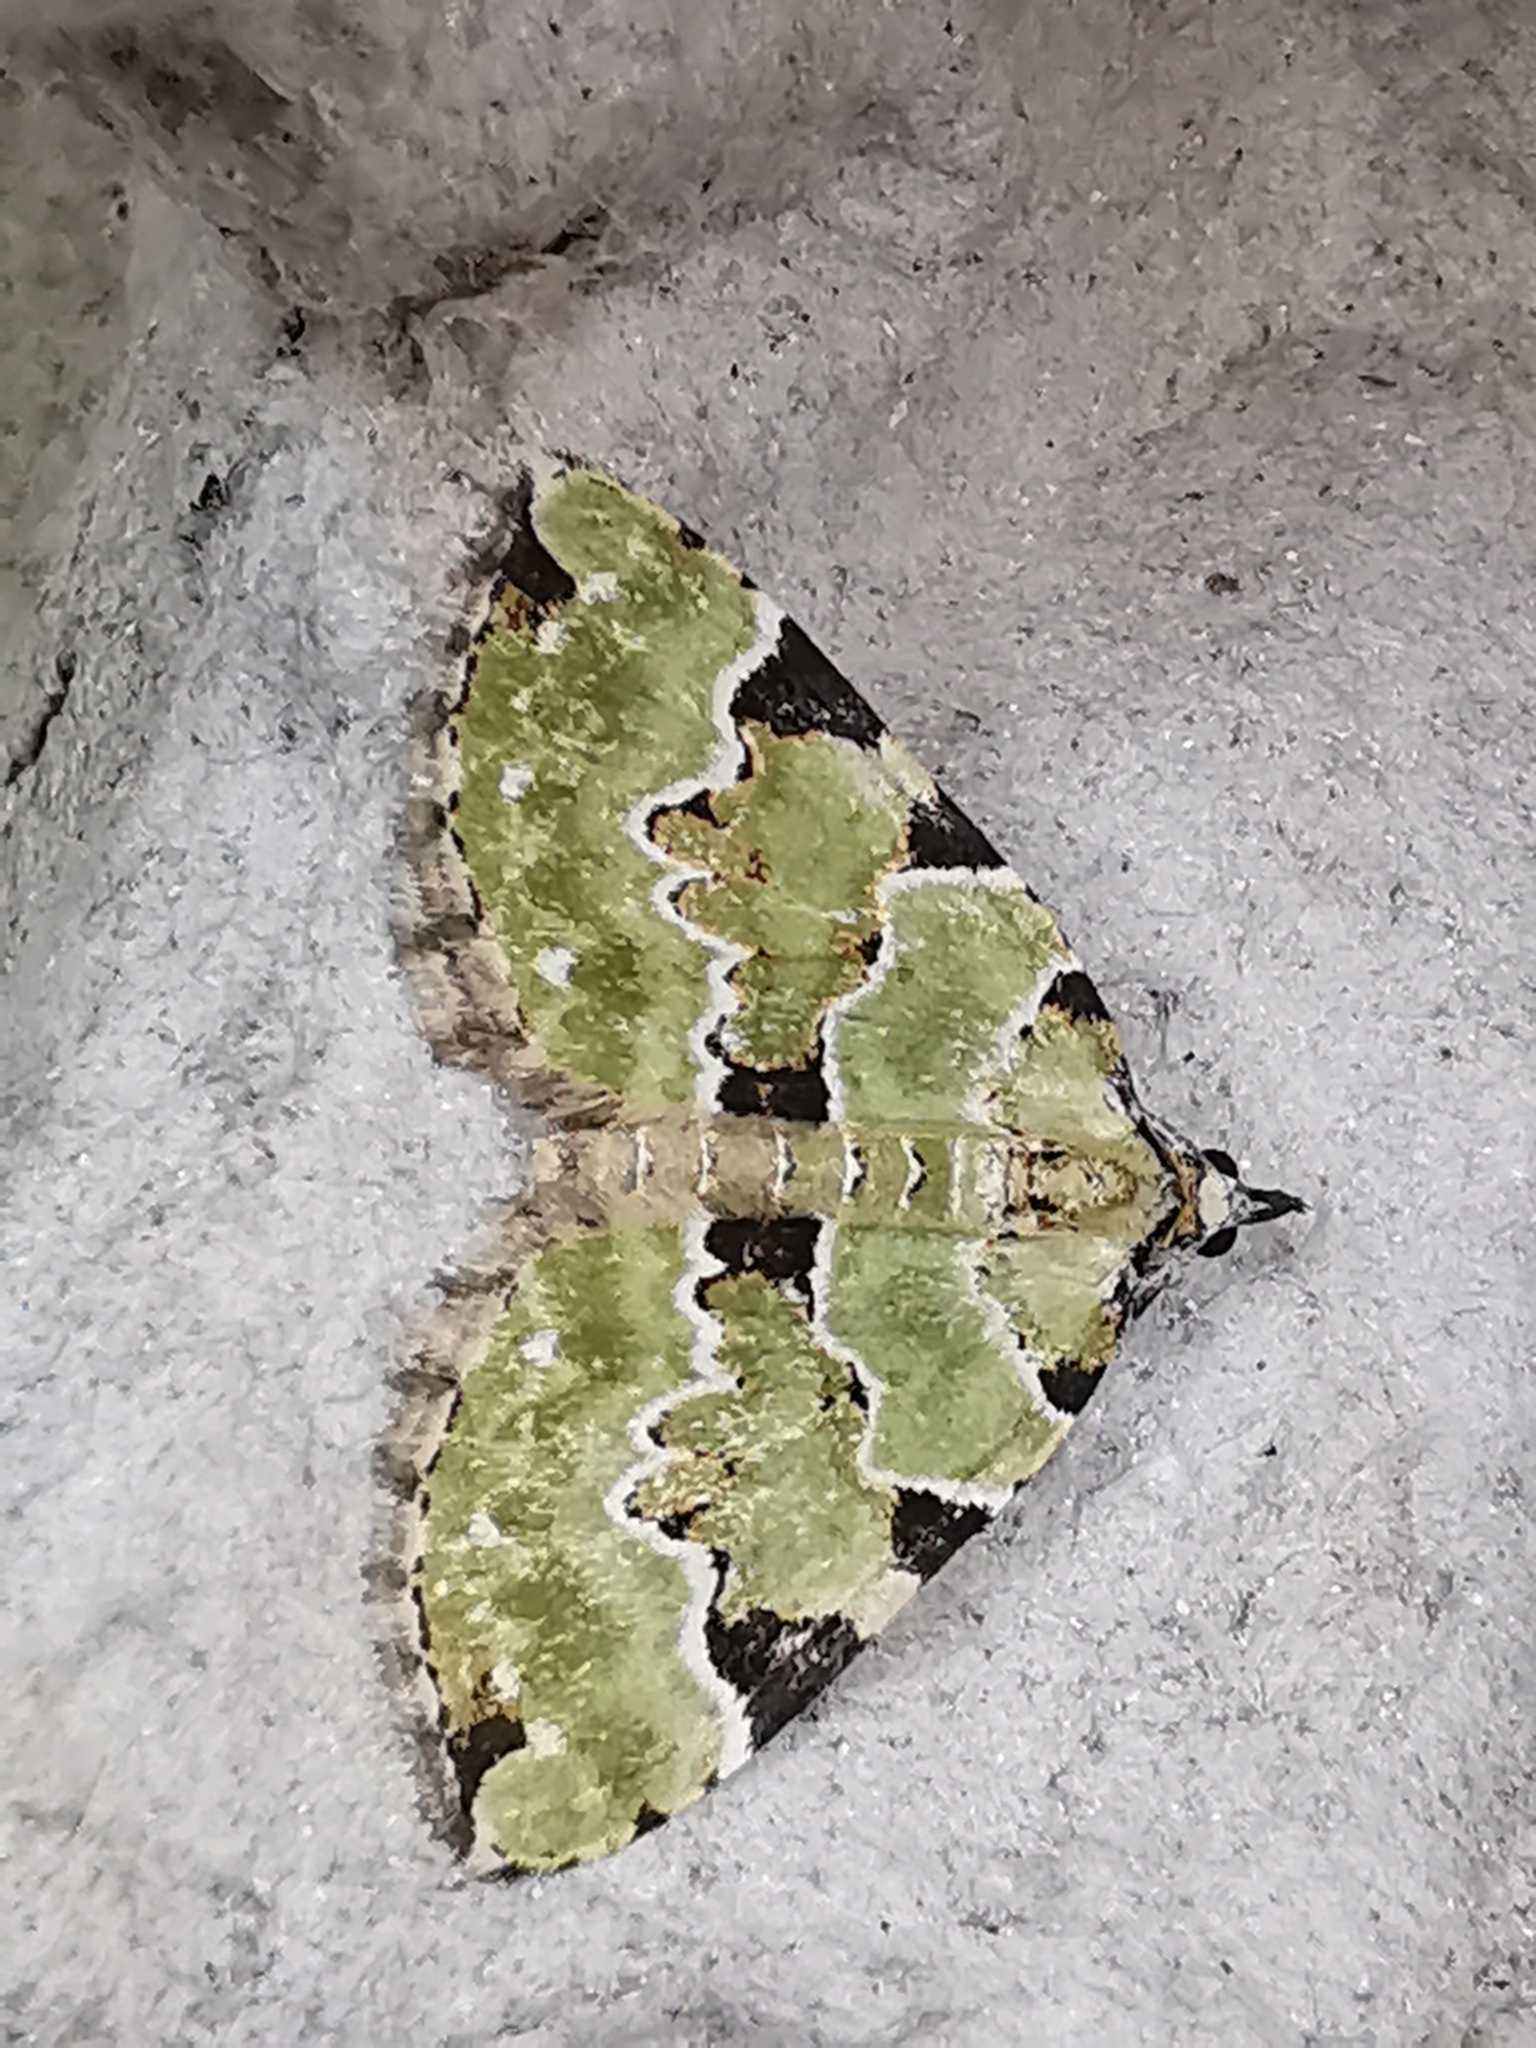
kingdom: Animalia
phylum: Arthropoda
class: Insecta
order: Lepidoptera
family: Geometridae
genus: Colostygia
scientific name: Colostygia pectinataria
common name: Green carpet
